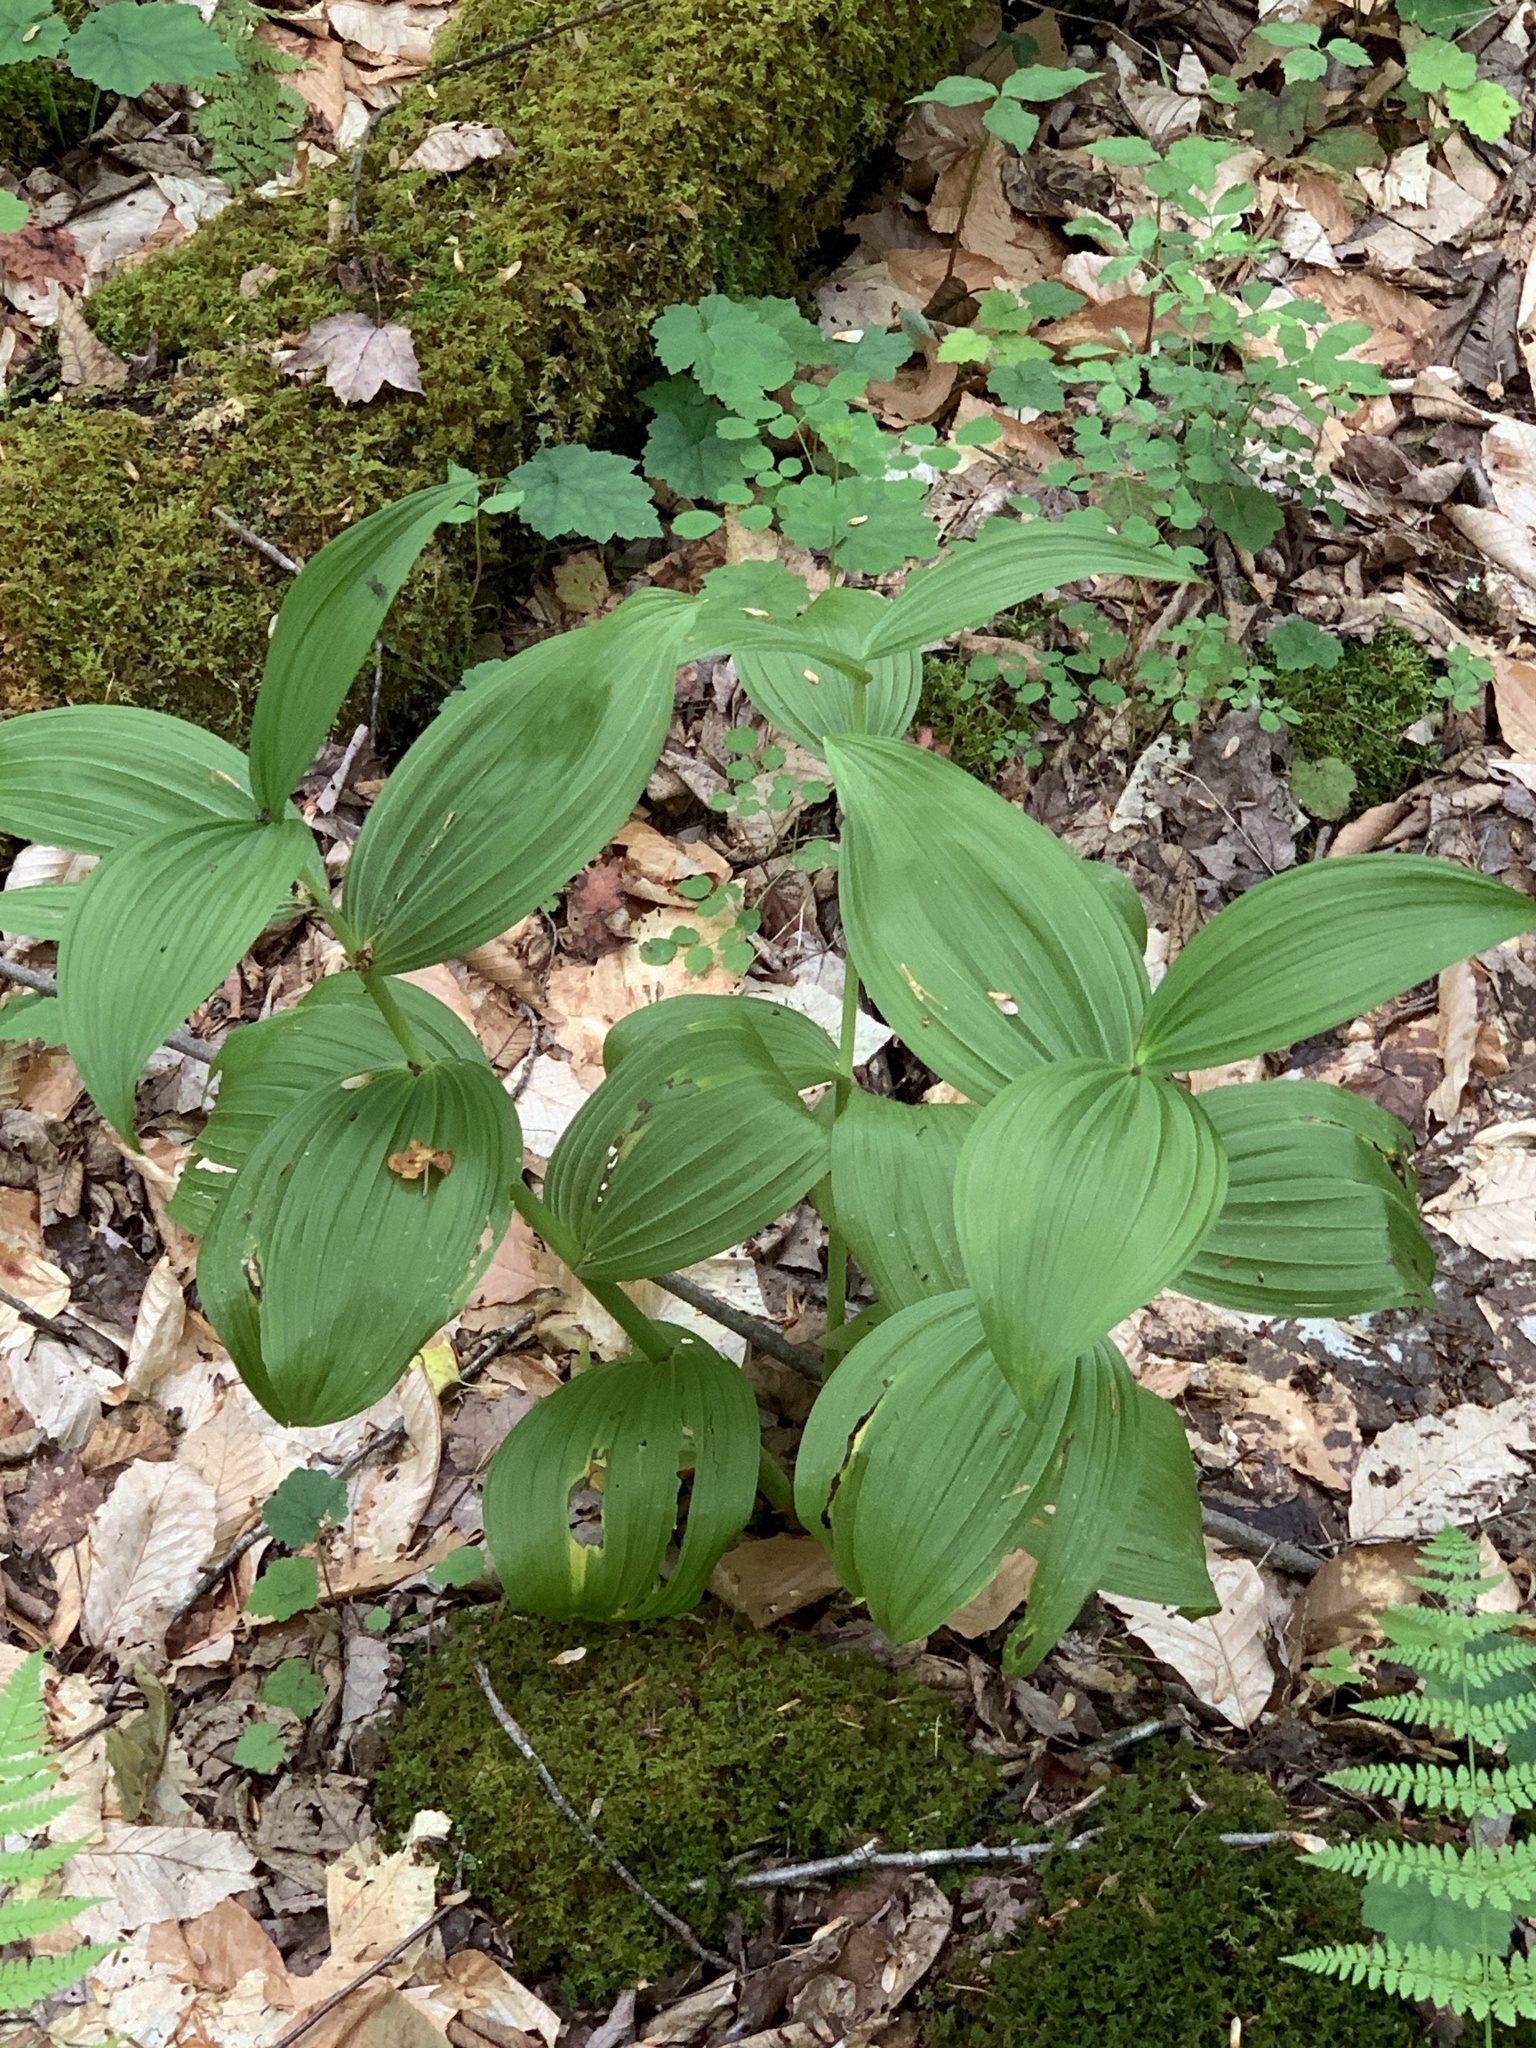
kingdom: Plantae
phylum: Tracheophyta
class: Liliopsida
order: Liliales
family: Melanthiaceae
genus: Veratrum
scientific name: Veratrum viride
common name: American false hellebore
